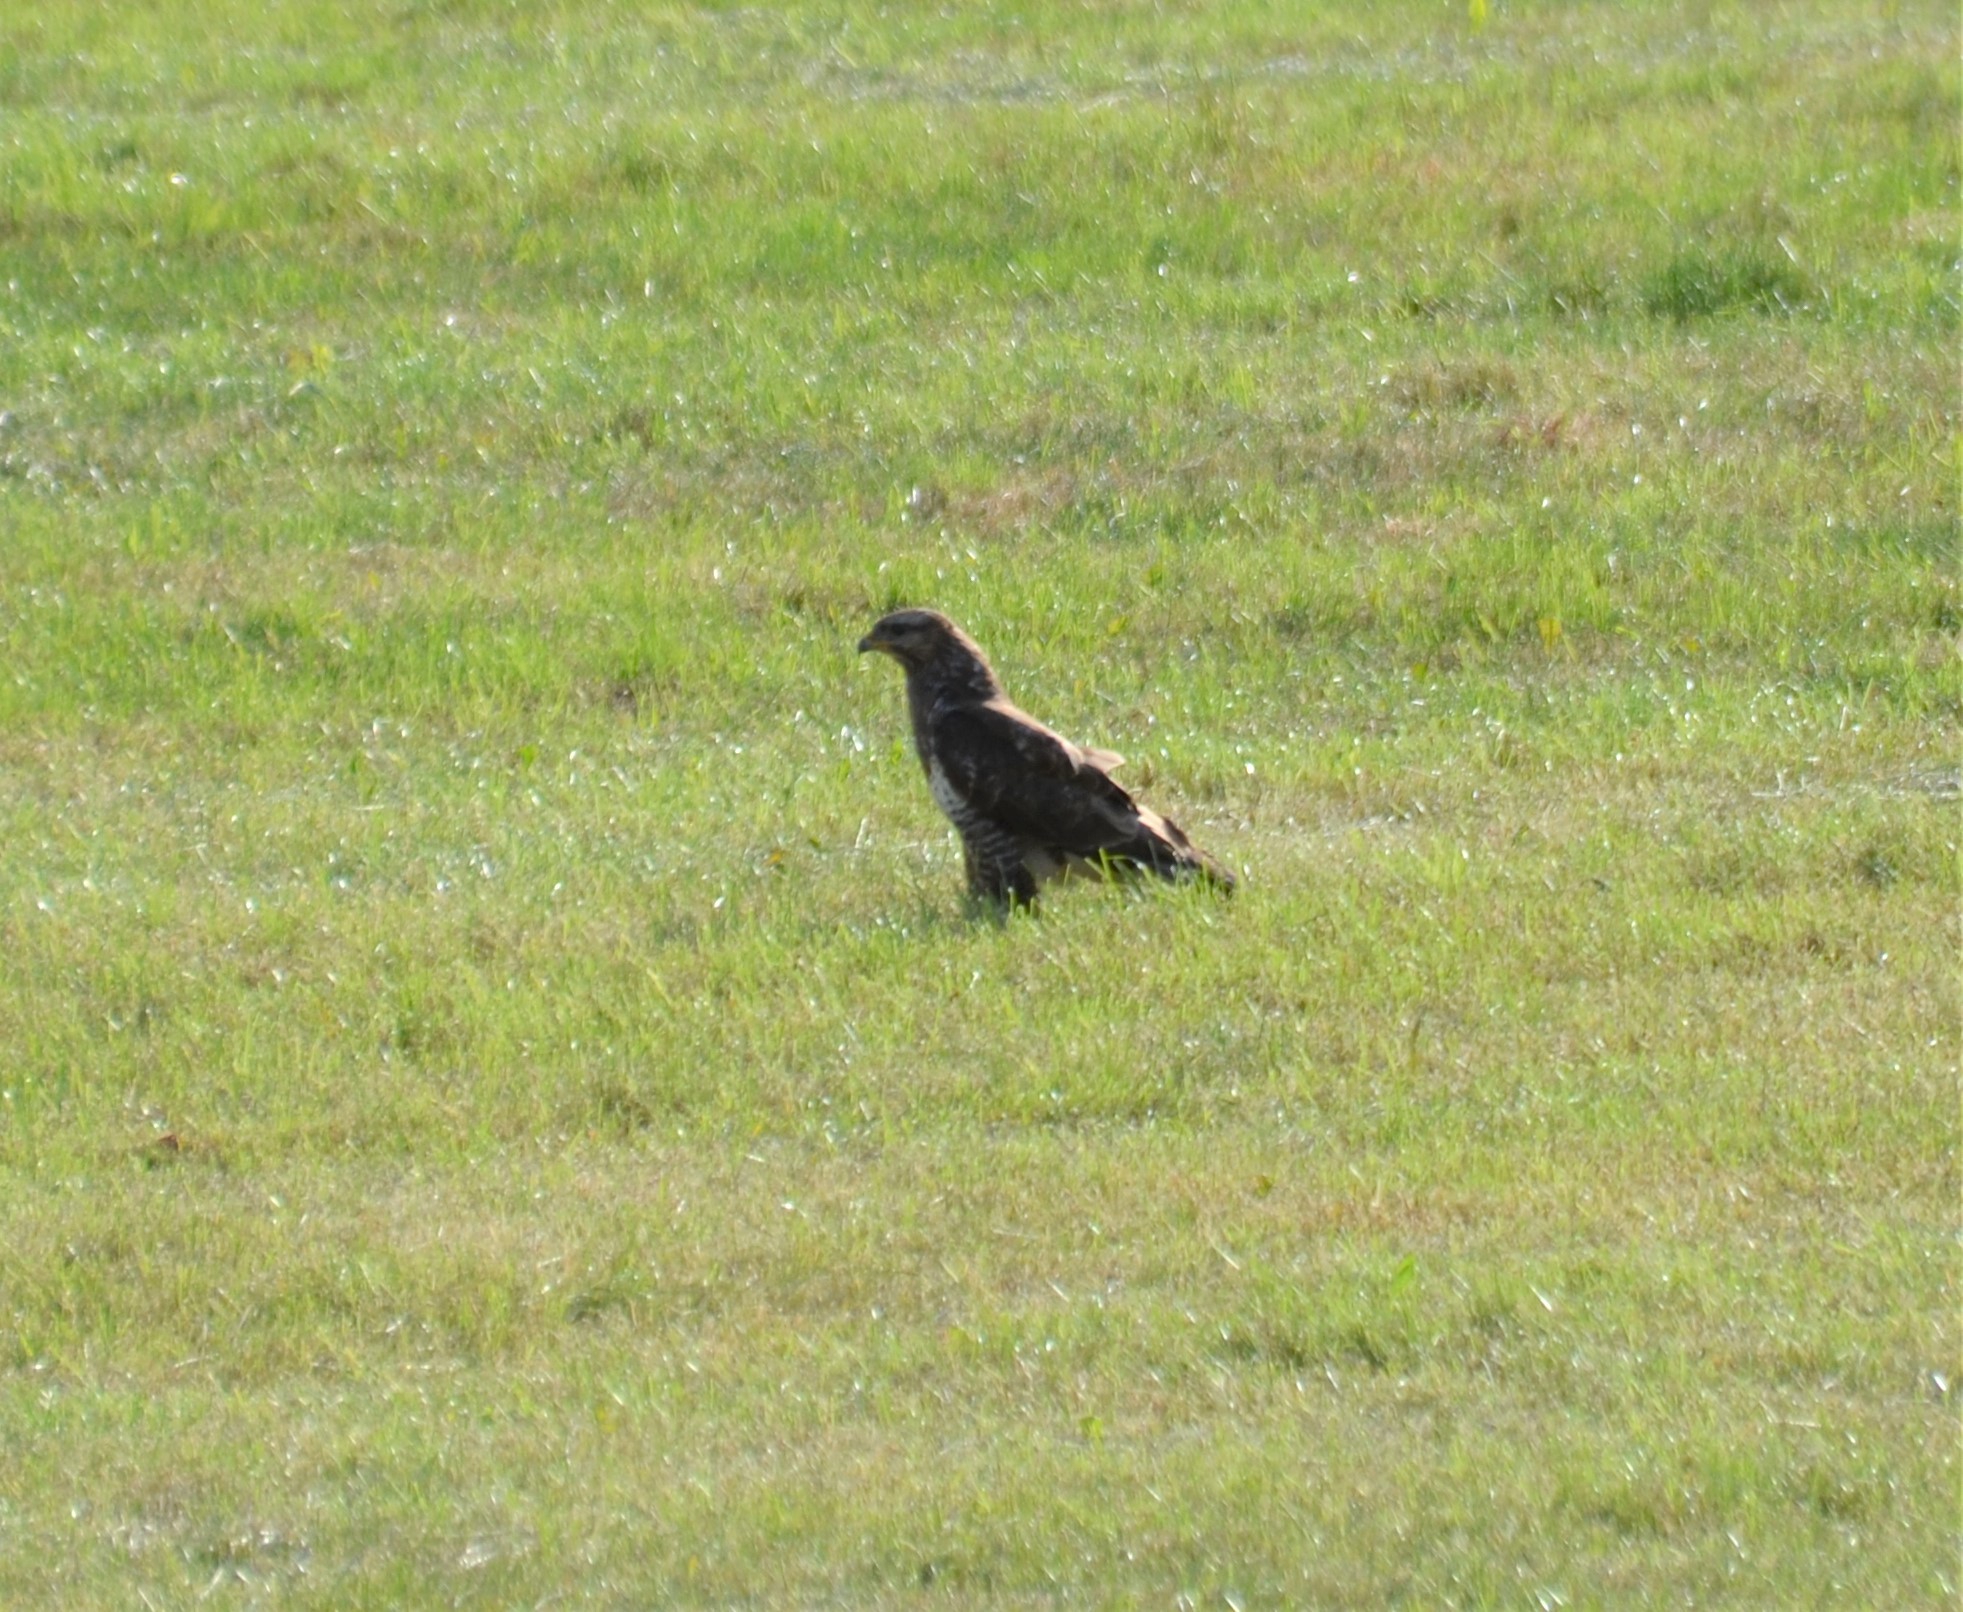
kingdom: Animalia
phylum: Chordata
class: Aves
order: Accipitriformes
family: Accipitridae
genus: Buteo
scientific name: Buteo buteo
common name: Common buzzard
